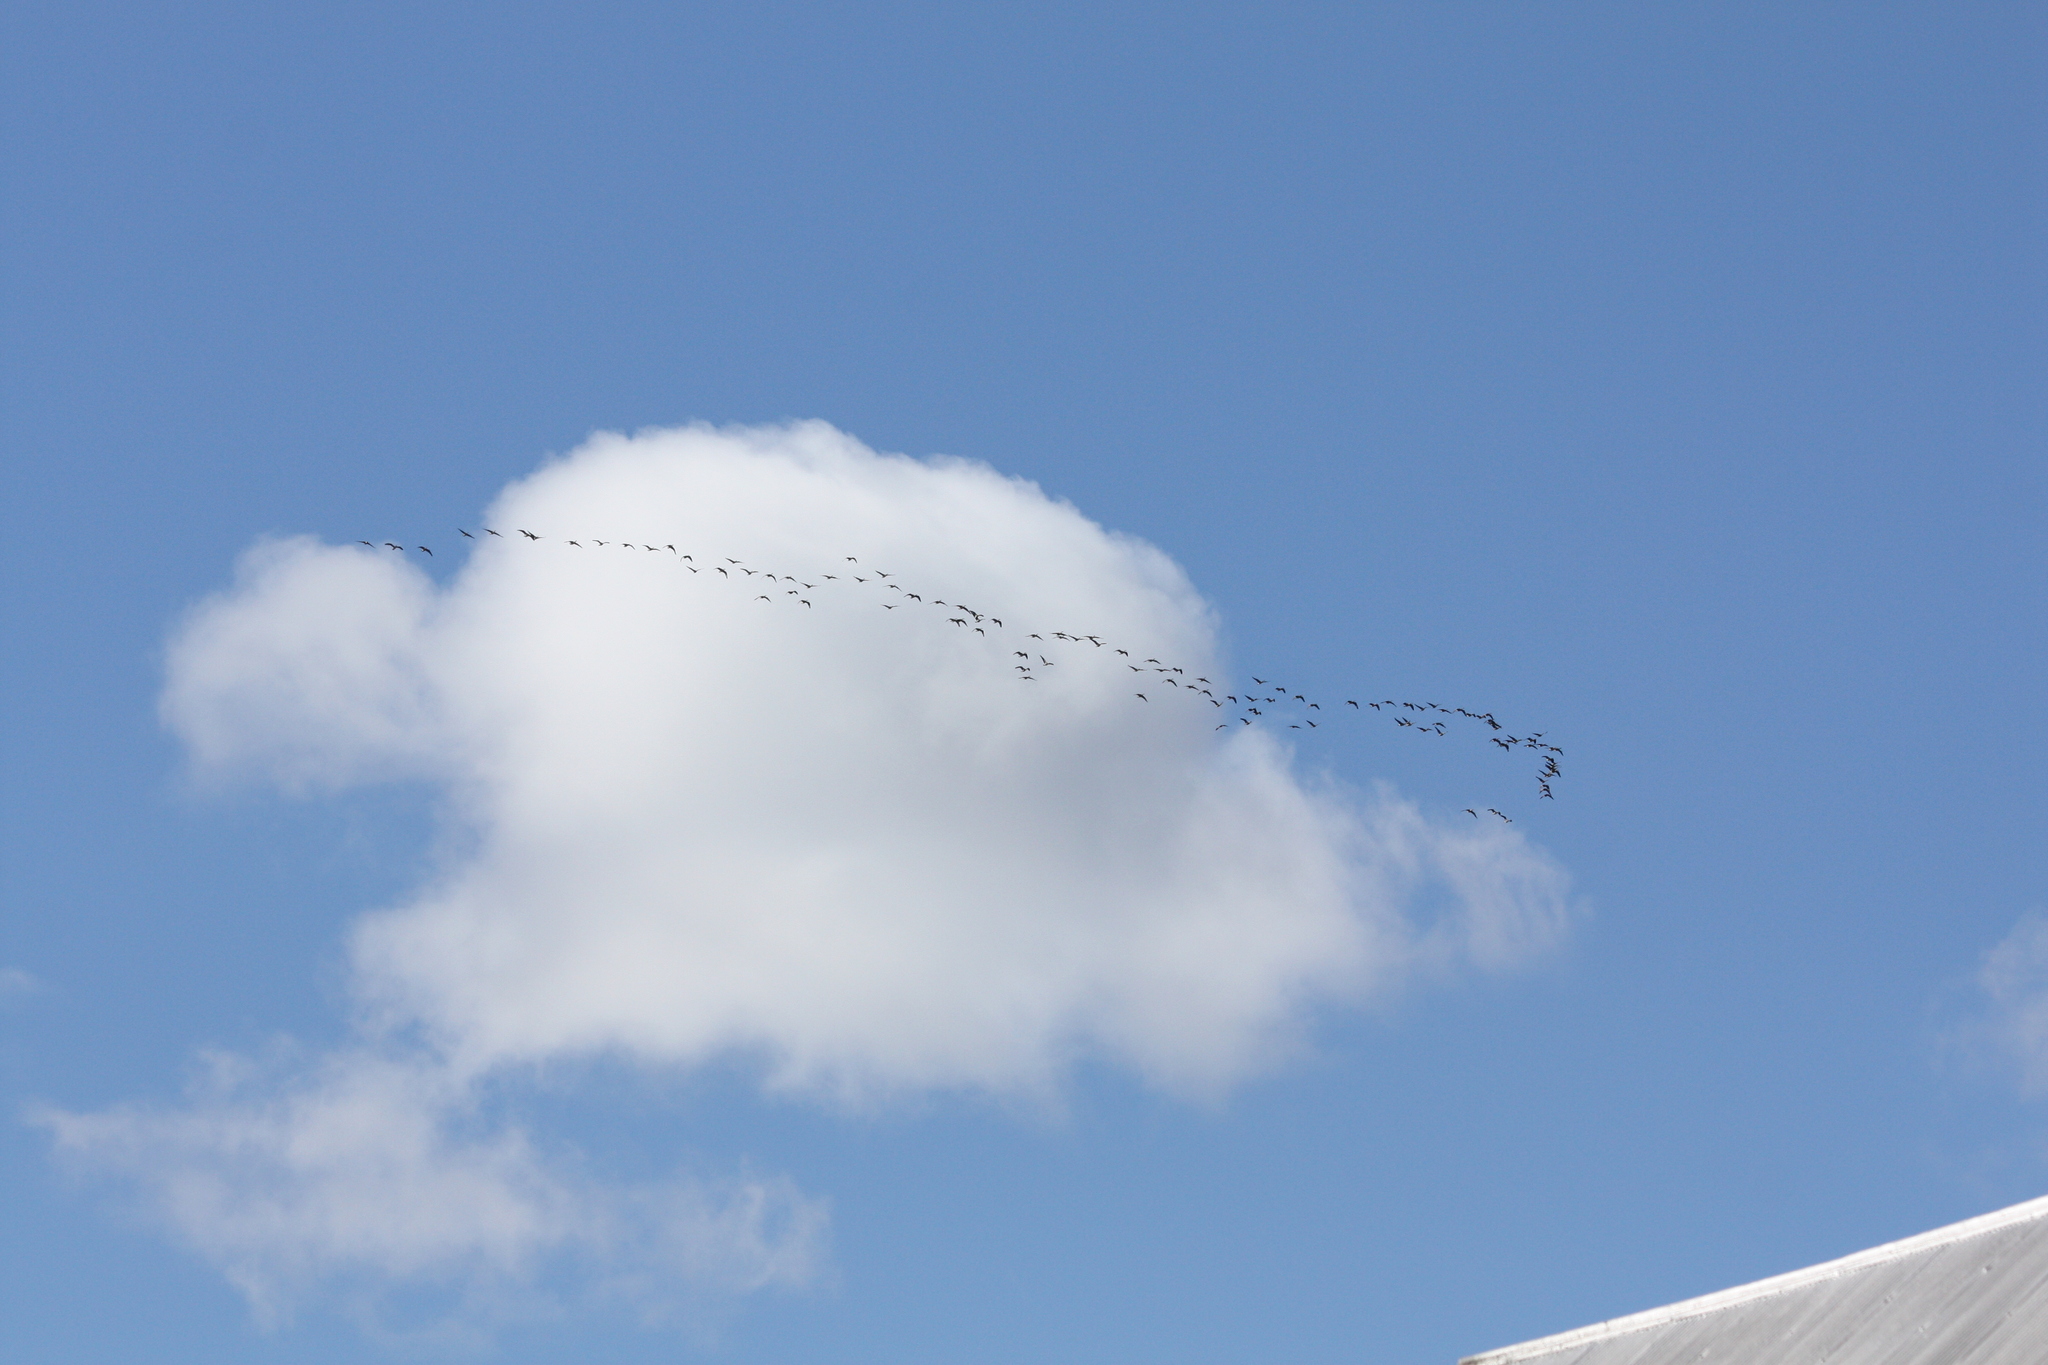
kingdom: Animalia
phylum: Chordata
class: Aves
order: Anseriformes
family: Anatidae
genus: Branta
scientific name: Branta canadensis
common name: Canada goose
